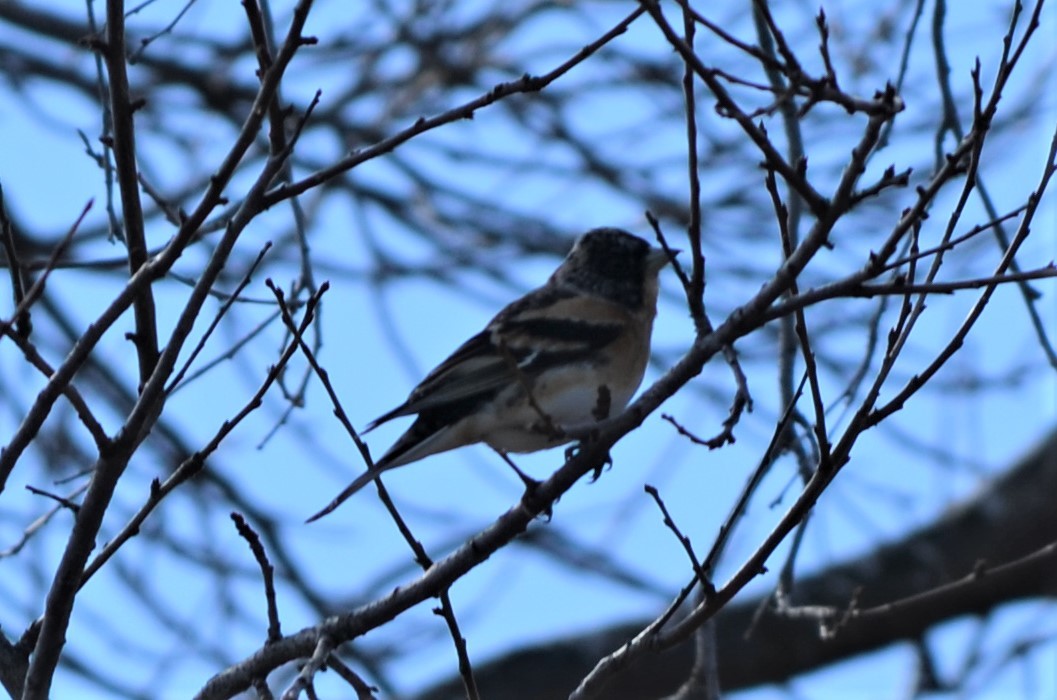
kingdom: Animalia
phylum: Chordata
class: Aves
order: Passeriformes
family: Fringillidae
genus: Fringilla
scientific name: Fringilla montifringilla
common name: Brambling
